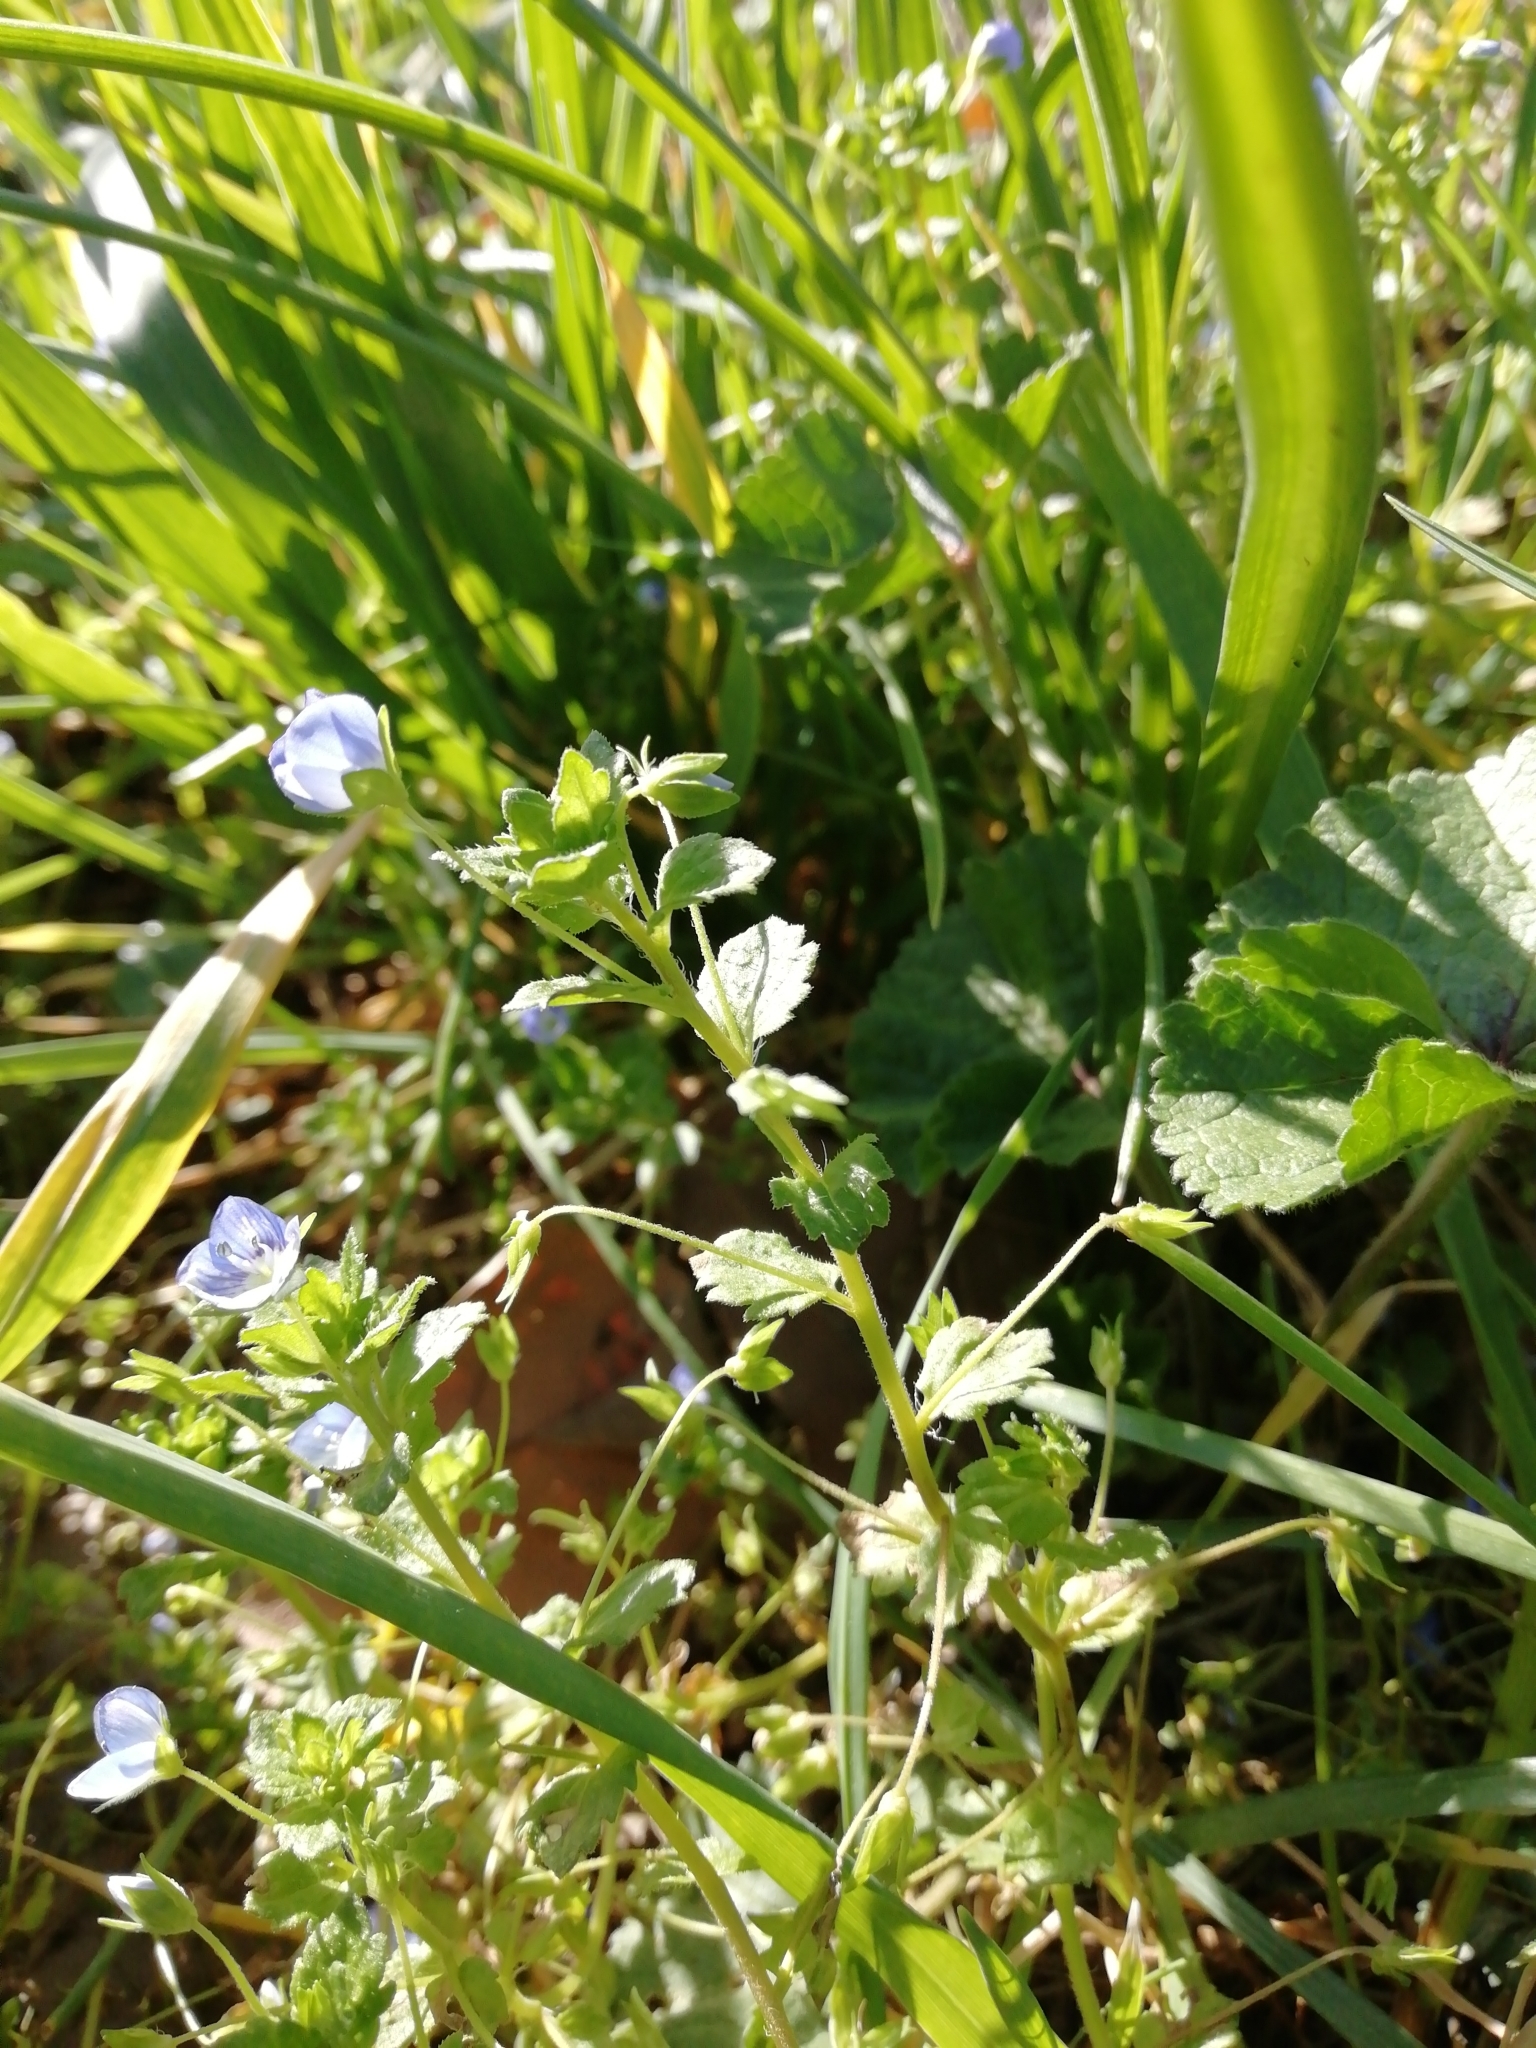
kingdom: Plantae
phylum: Tracheophyta
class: Magnoliopsida
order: Lamiales
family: Plantaginaceae
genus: Veronica
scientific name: Veronica persica
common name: Common field-speedwell
